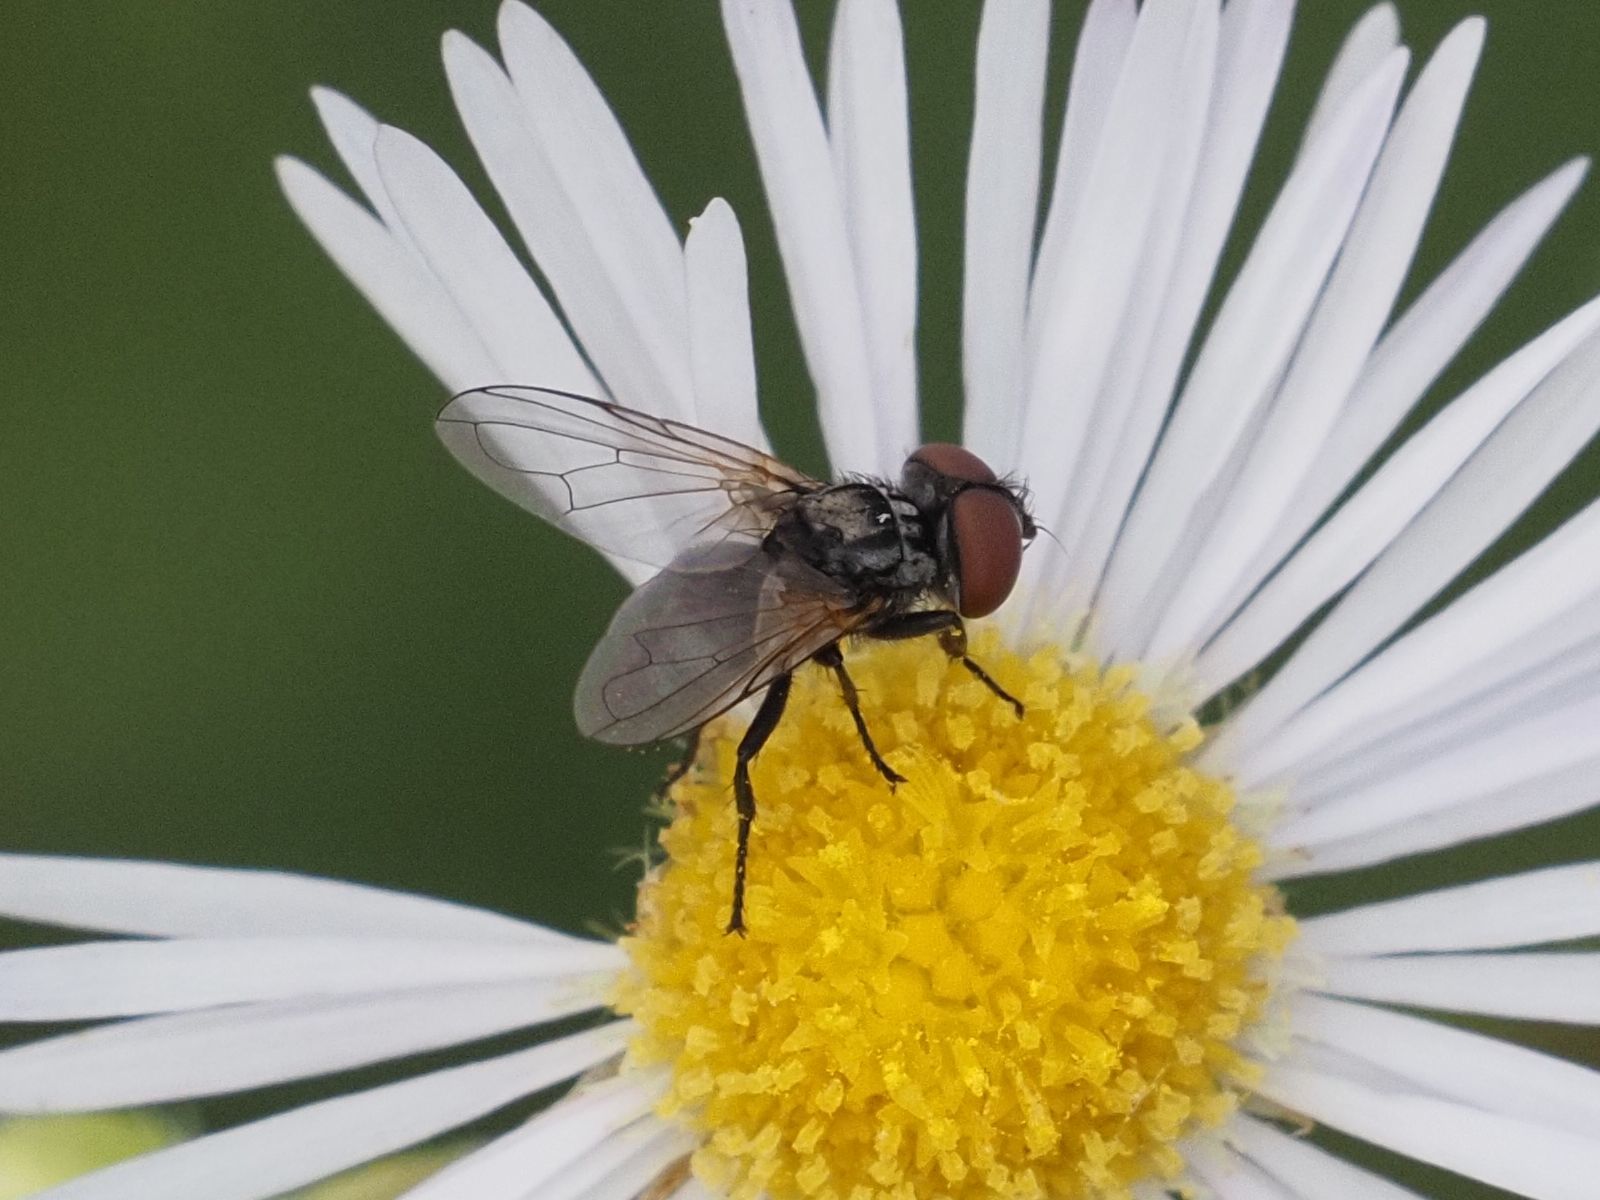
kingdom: Animalia
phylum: Arthropoda
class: Insecta
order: Diptera
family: Tachinidae
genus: Phasia
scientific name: Phasia obesa
